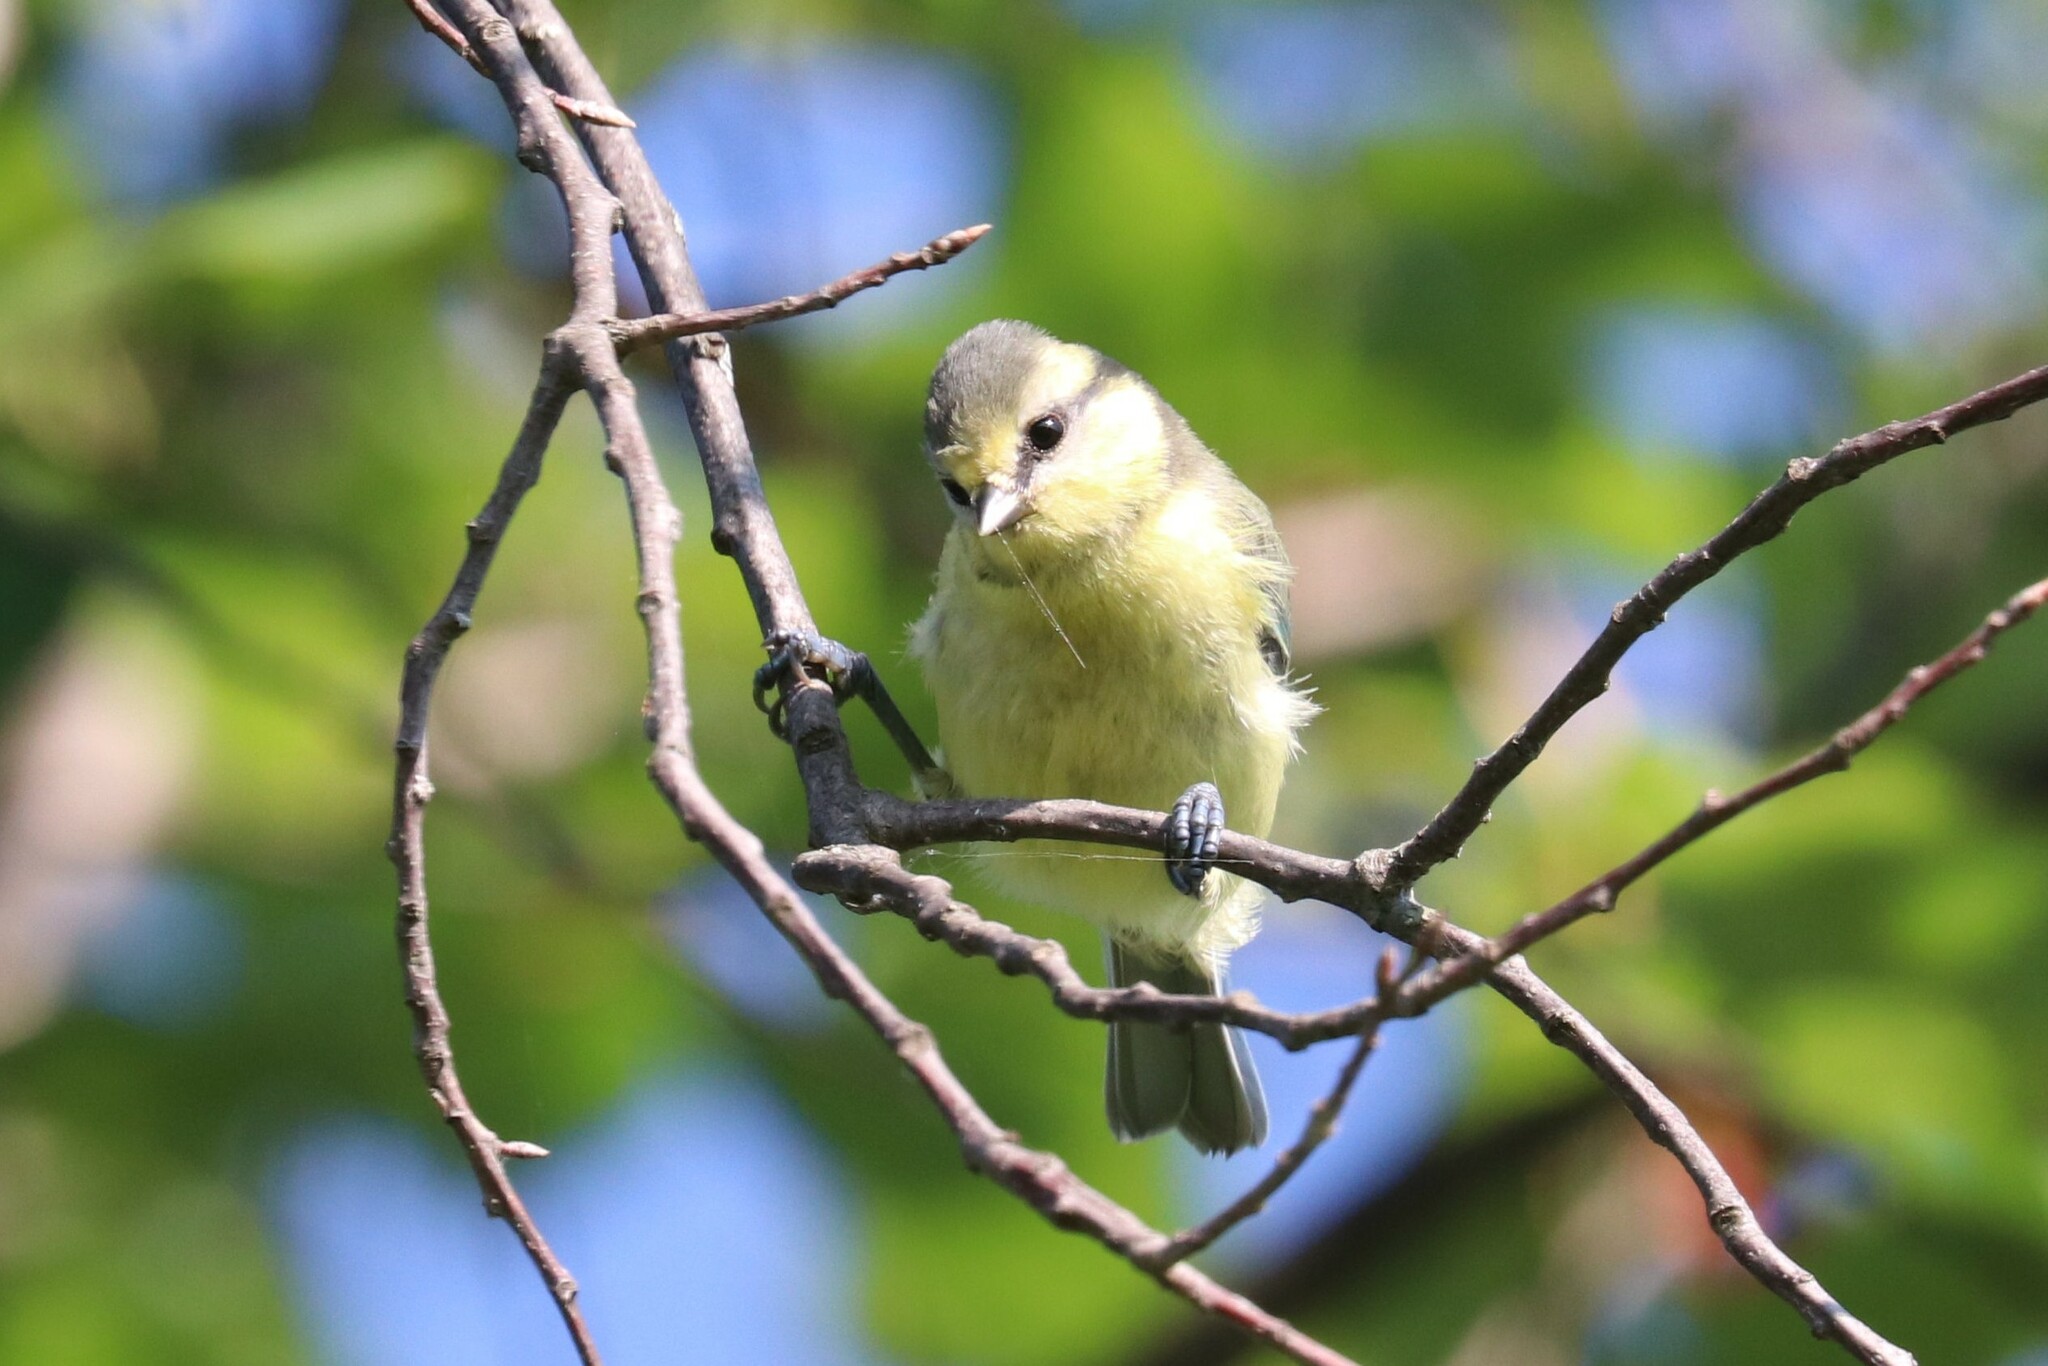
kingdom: Animalia
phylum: Chordata
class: Aves
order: Passeriformes
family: Paridae
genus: Cyanistes
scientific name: Cyanistes caeruleus
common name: Eurasian blue tit
